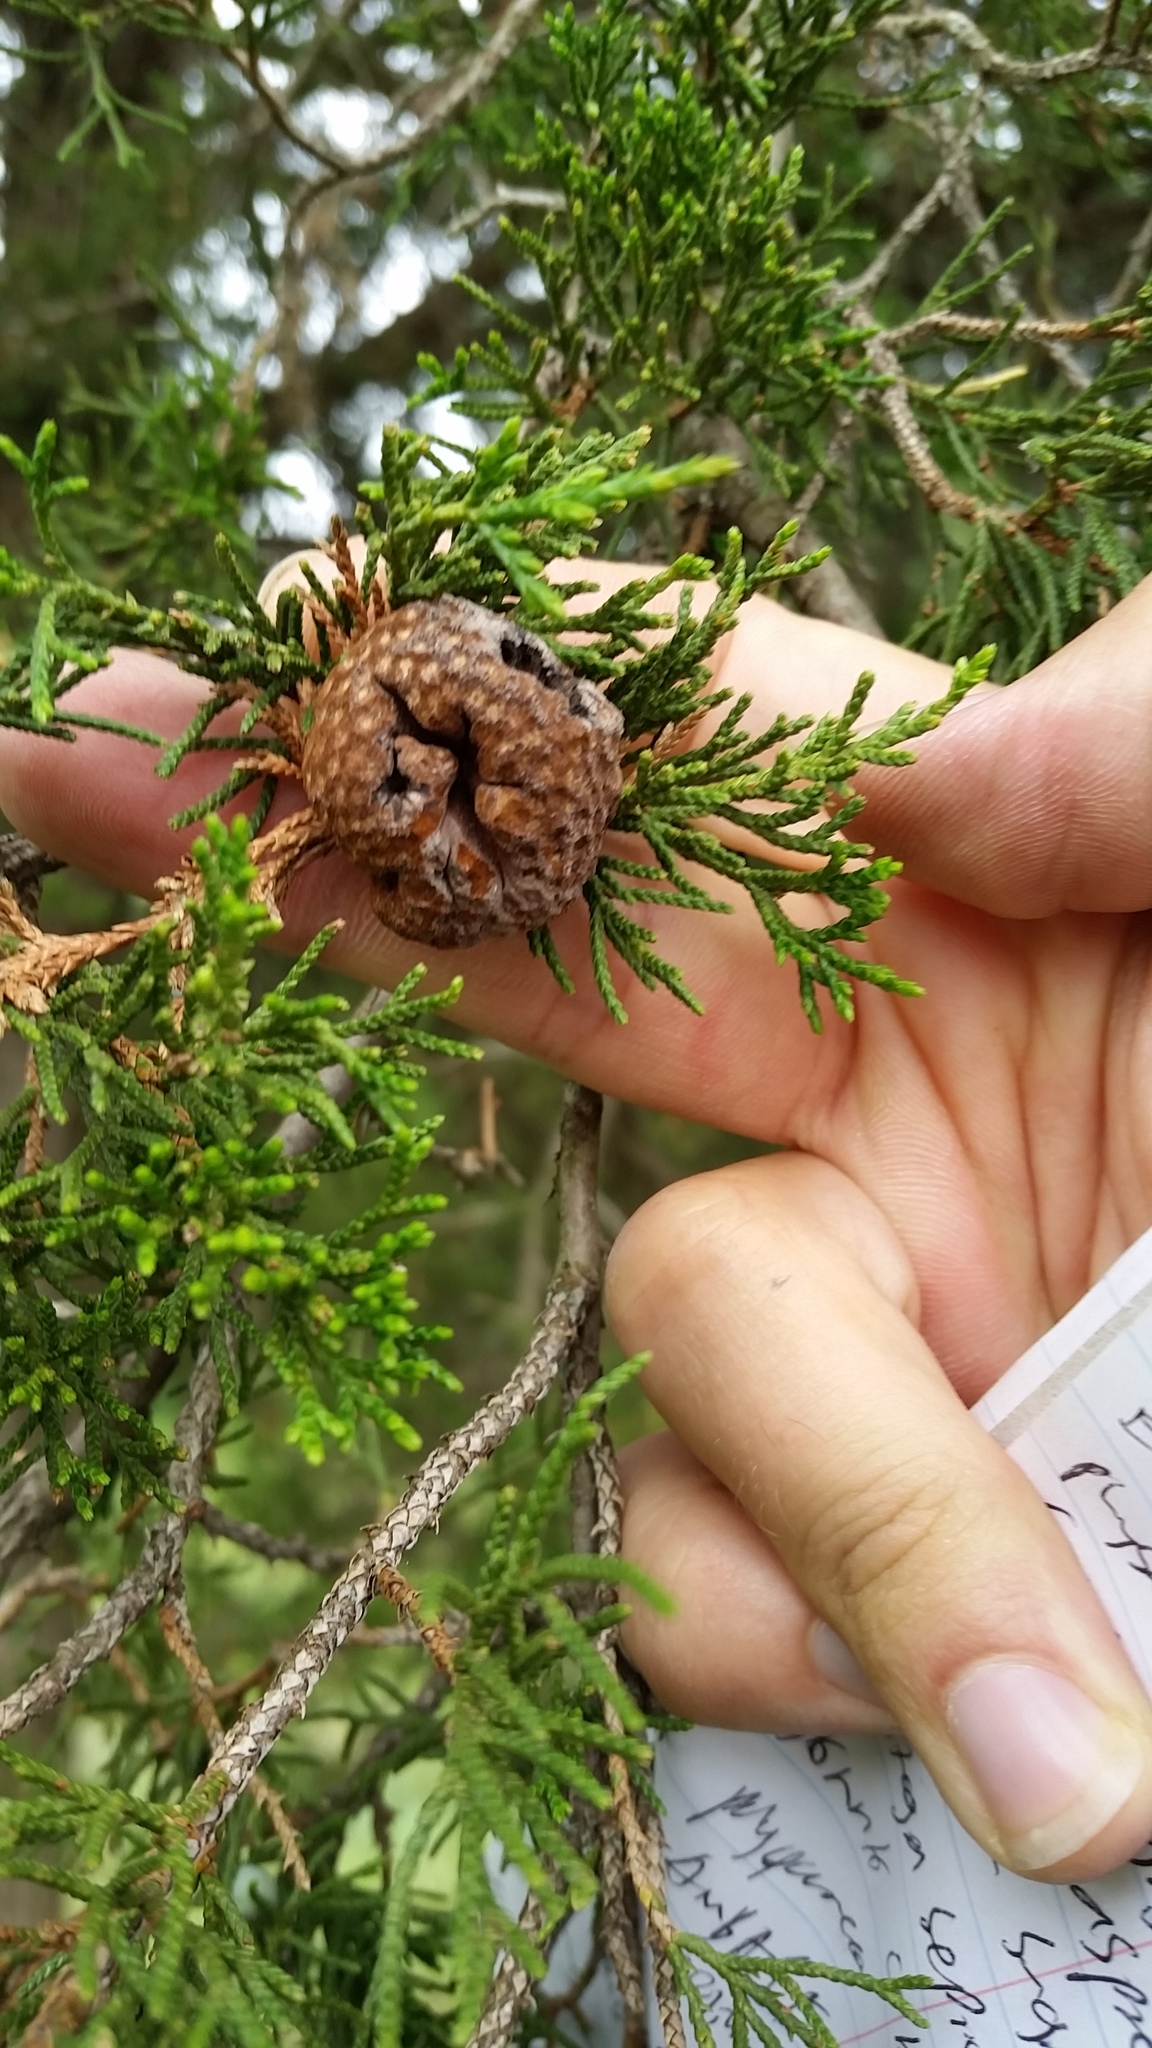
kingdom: Fungi
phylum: Basidiomycota
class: Pucciniomycetes
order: Pucciniales
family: Gymnosporangiaceae
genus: Gymnosporangium
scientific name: Gymnosporangium juniperi-virginianae
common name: Juniper-apple rust
